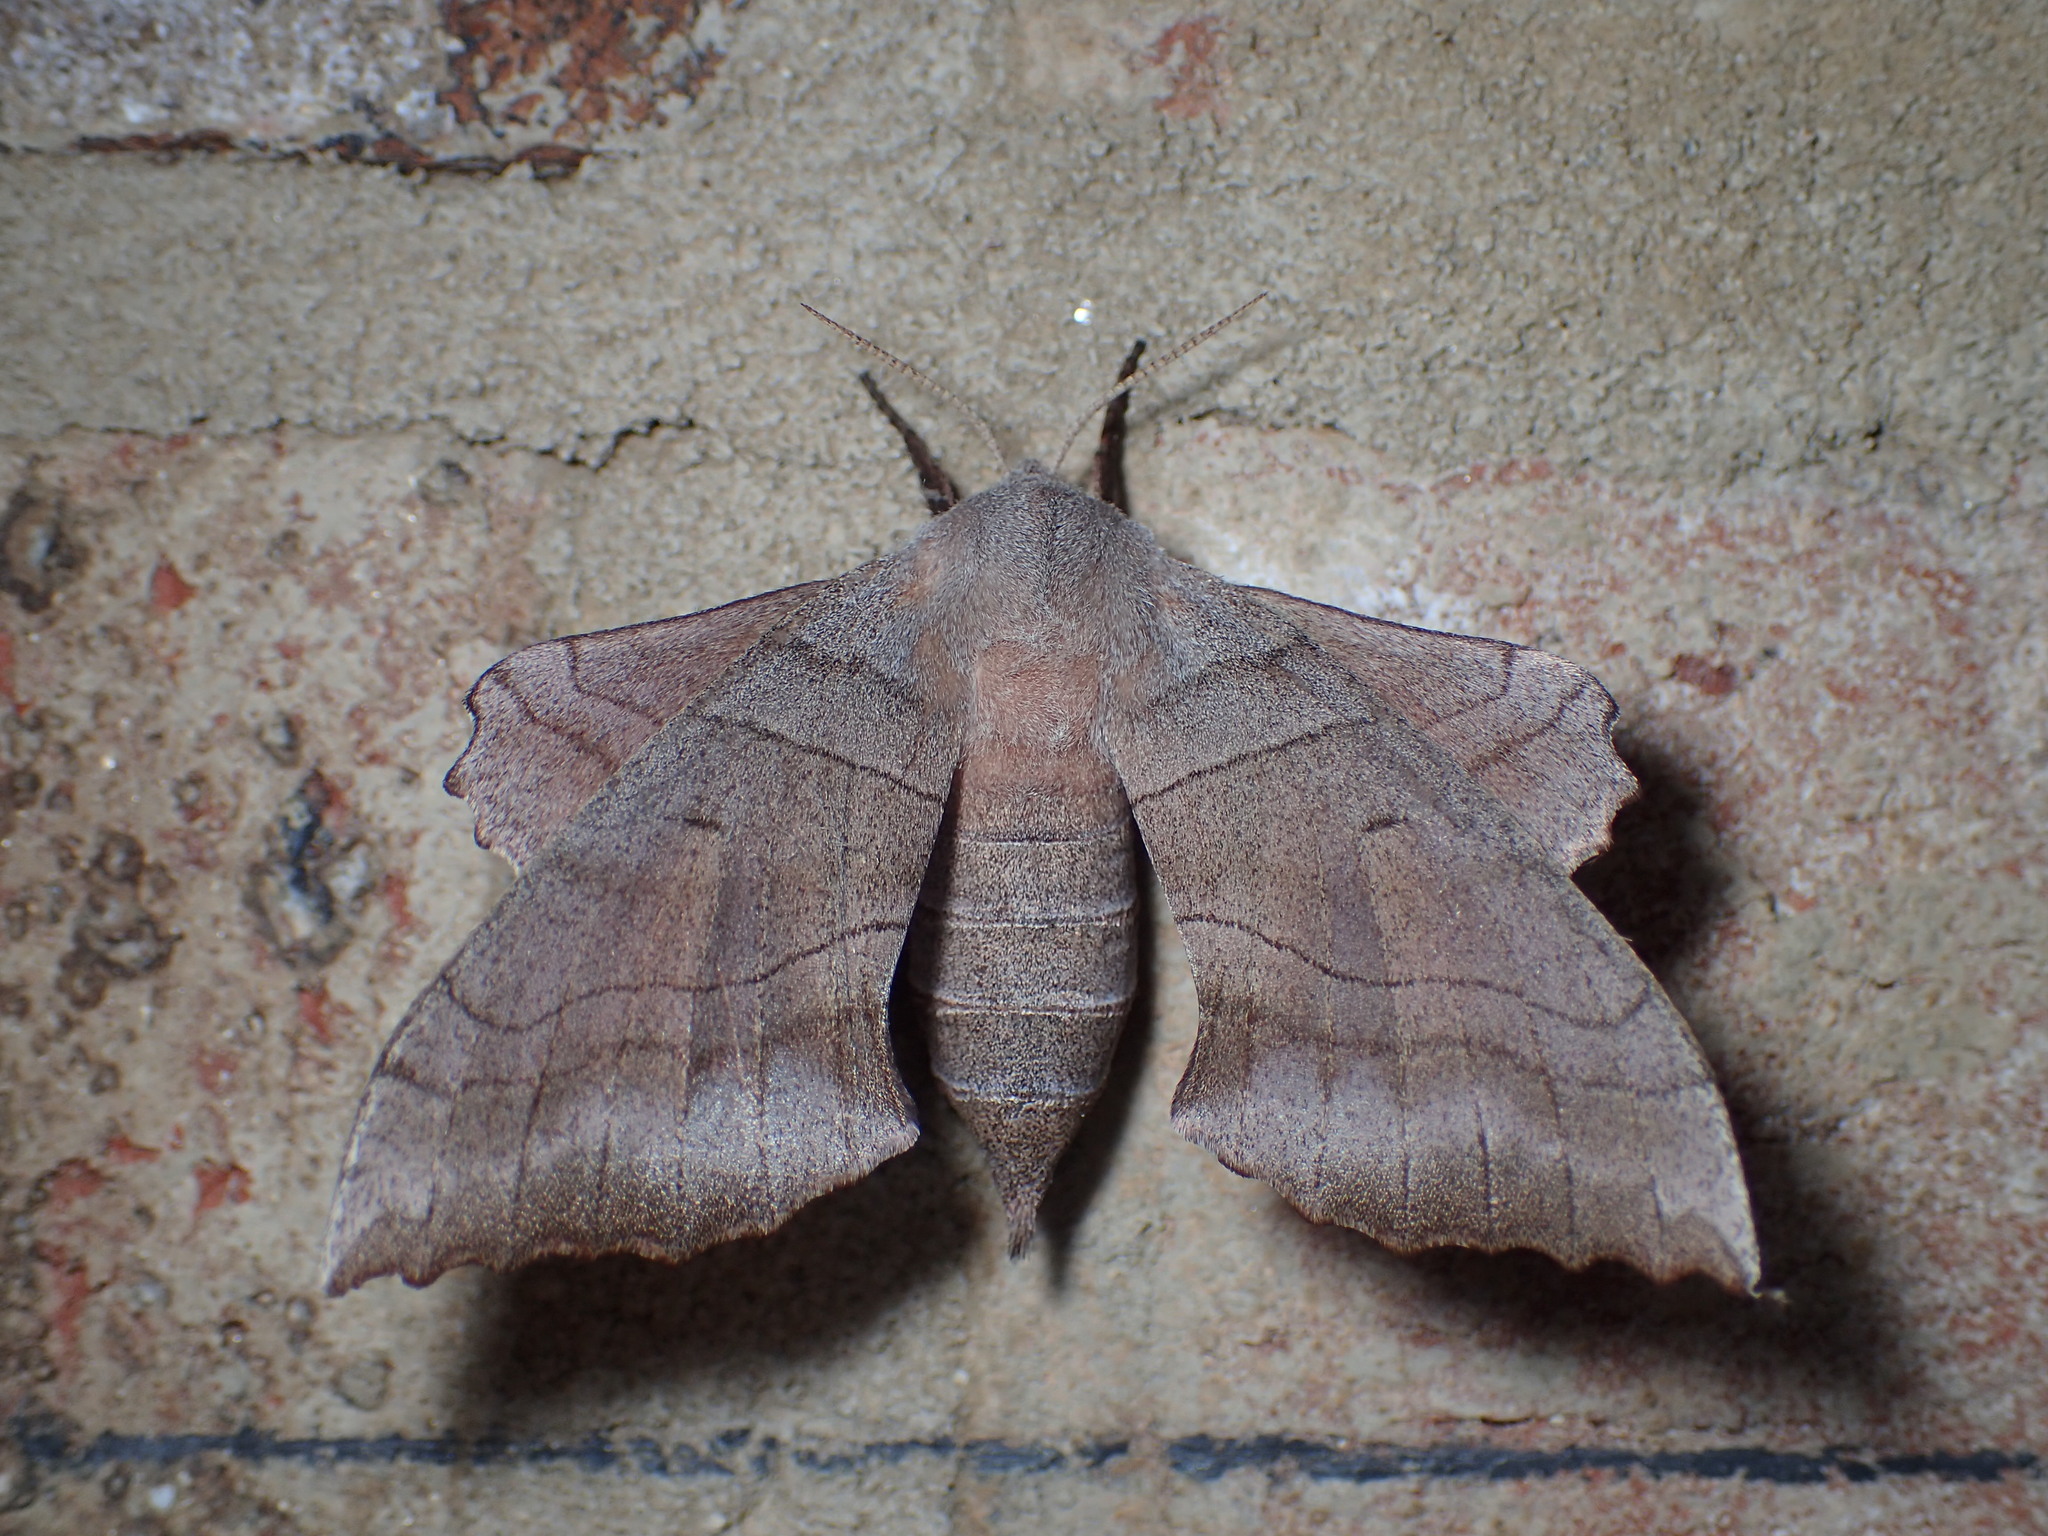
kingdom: Animalia
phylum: Arthropoda
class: Insecta
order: Lepidoptera
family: Sphingidae
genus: Amorpha
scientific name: Amorpha juglandis
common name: Walnut sphinx
